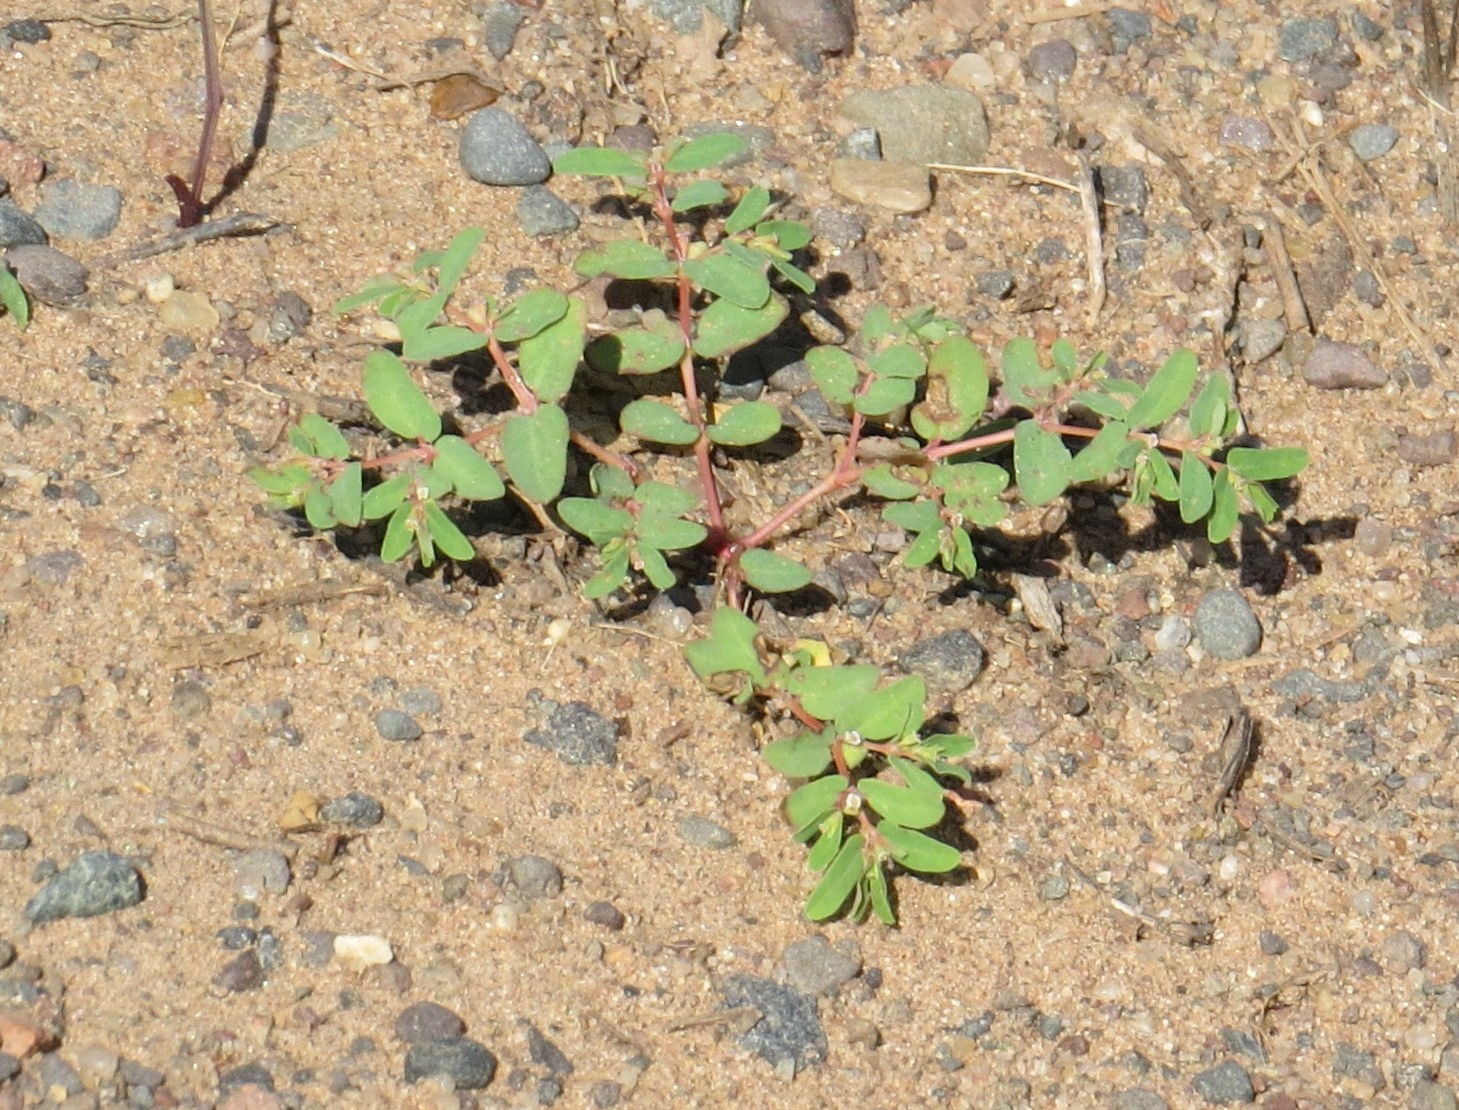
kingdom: Plantae
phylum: Tracheophyta
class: Magnoliopsida
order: Malpighiales
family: Euphorbiaceae
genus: Euphorbia
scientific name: Euphorbia glyptosperma
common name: Corrugate-seeded spurge
